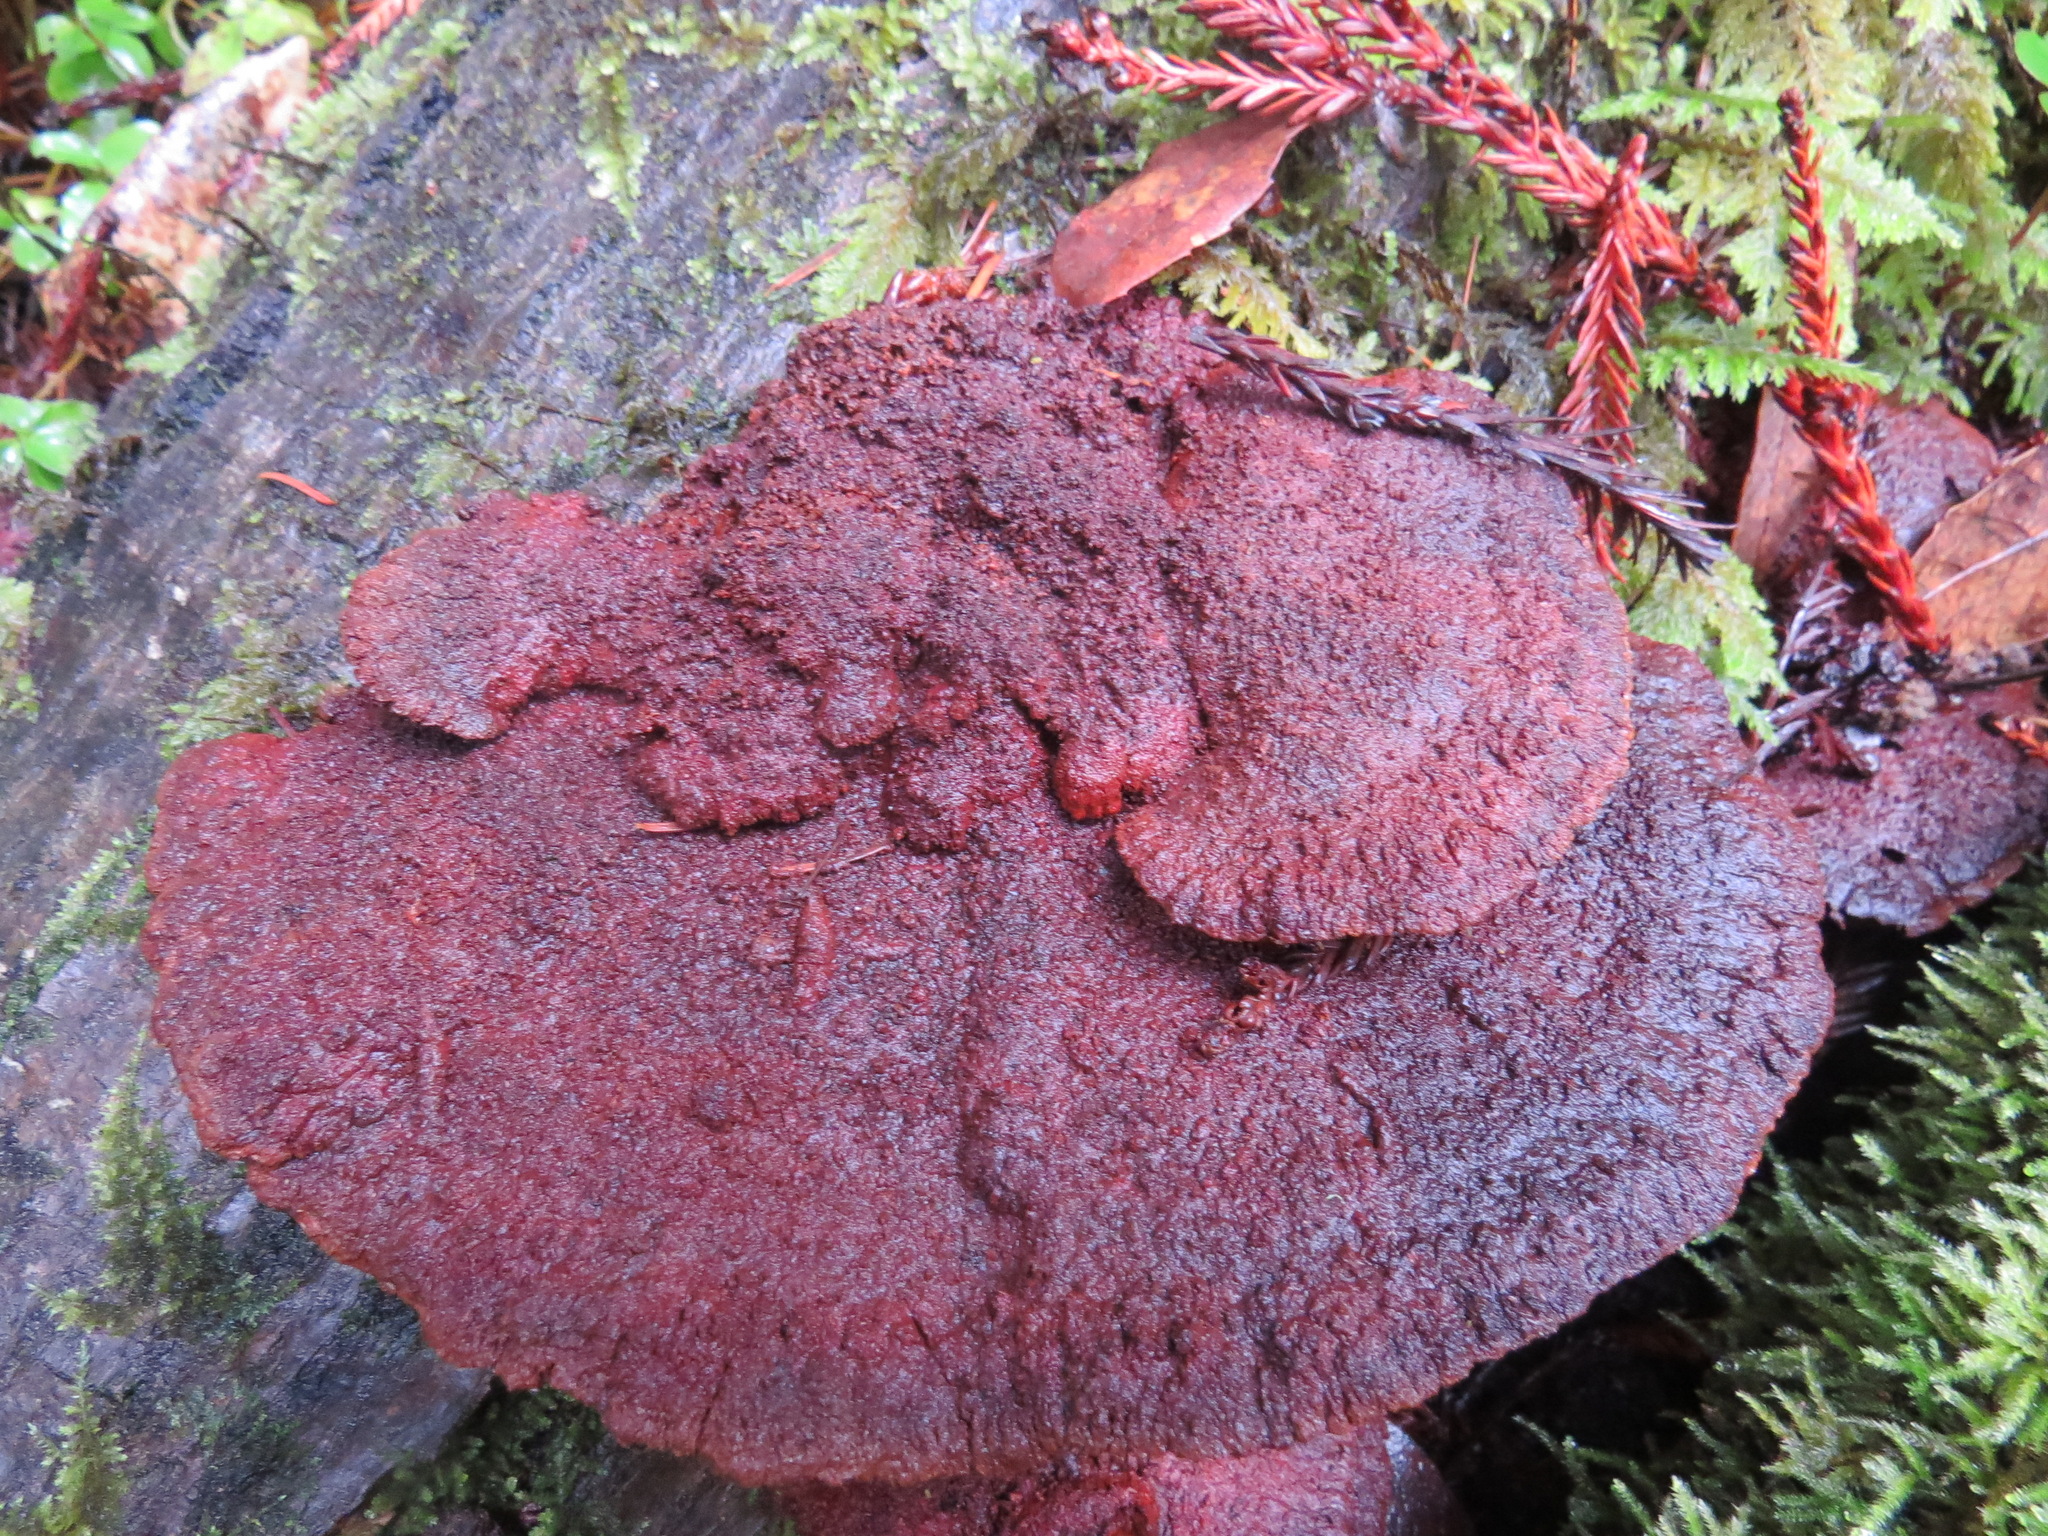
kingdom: Fungi
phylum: Basidiomycota
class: Agaricomycetes
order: Polyporales
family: Laetiporaceae
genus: Phaeolus
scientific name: Phaeolus schweinitzii
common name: Dyer's mazegill
